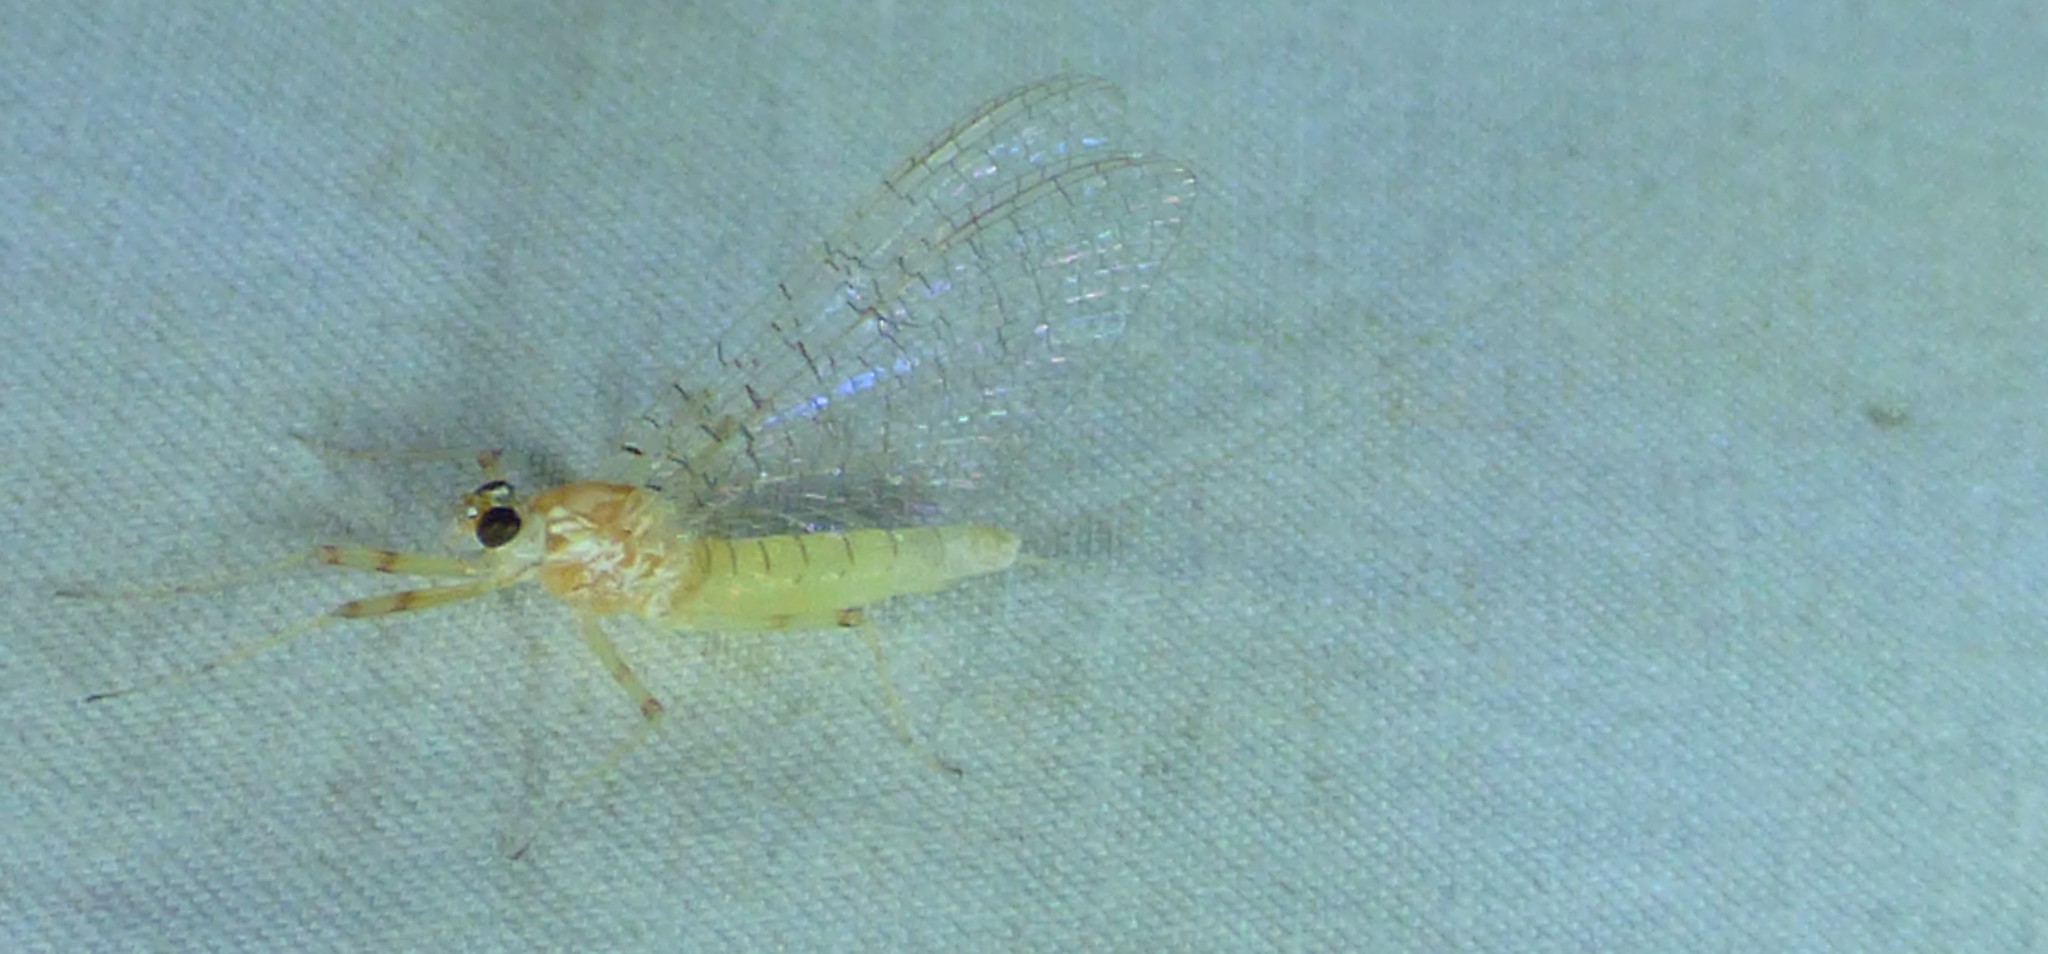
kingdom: Animalia
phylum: Arthropoda
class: Insecta
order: Ephemeroptera
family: Heptageniidae
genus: Maccaffertium
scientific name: Maccaffertium mexicanum
